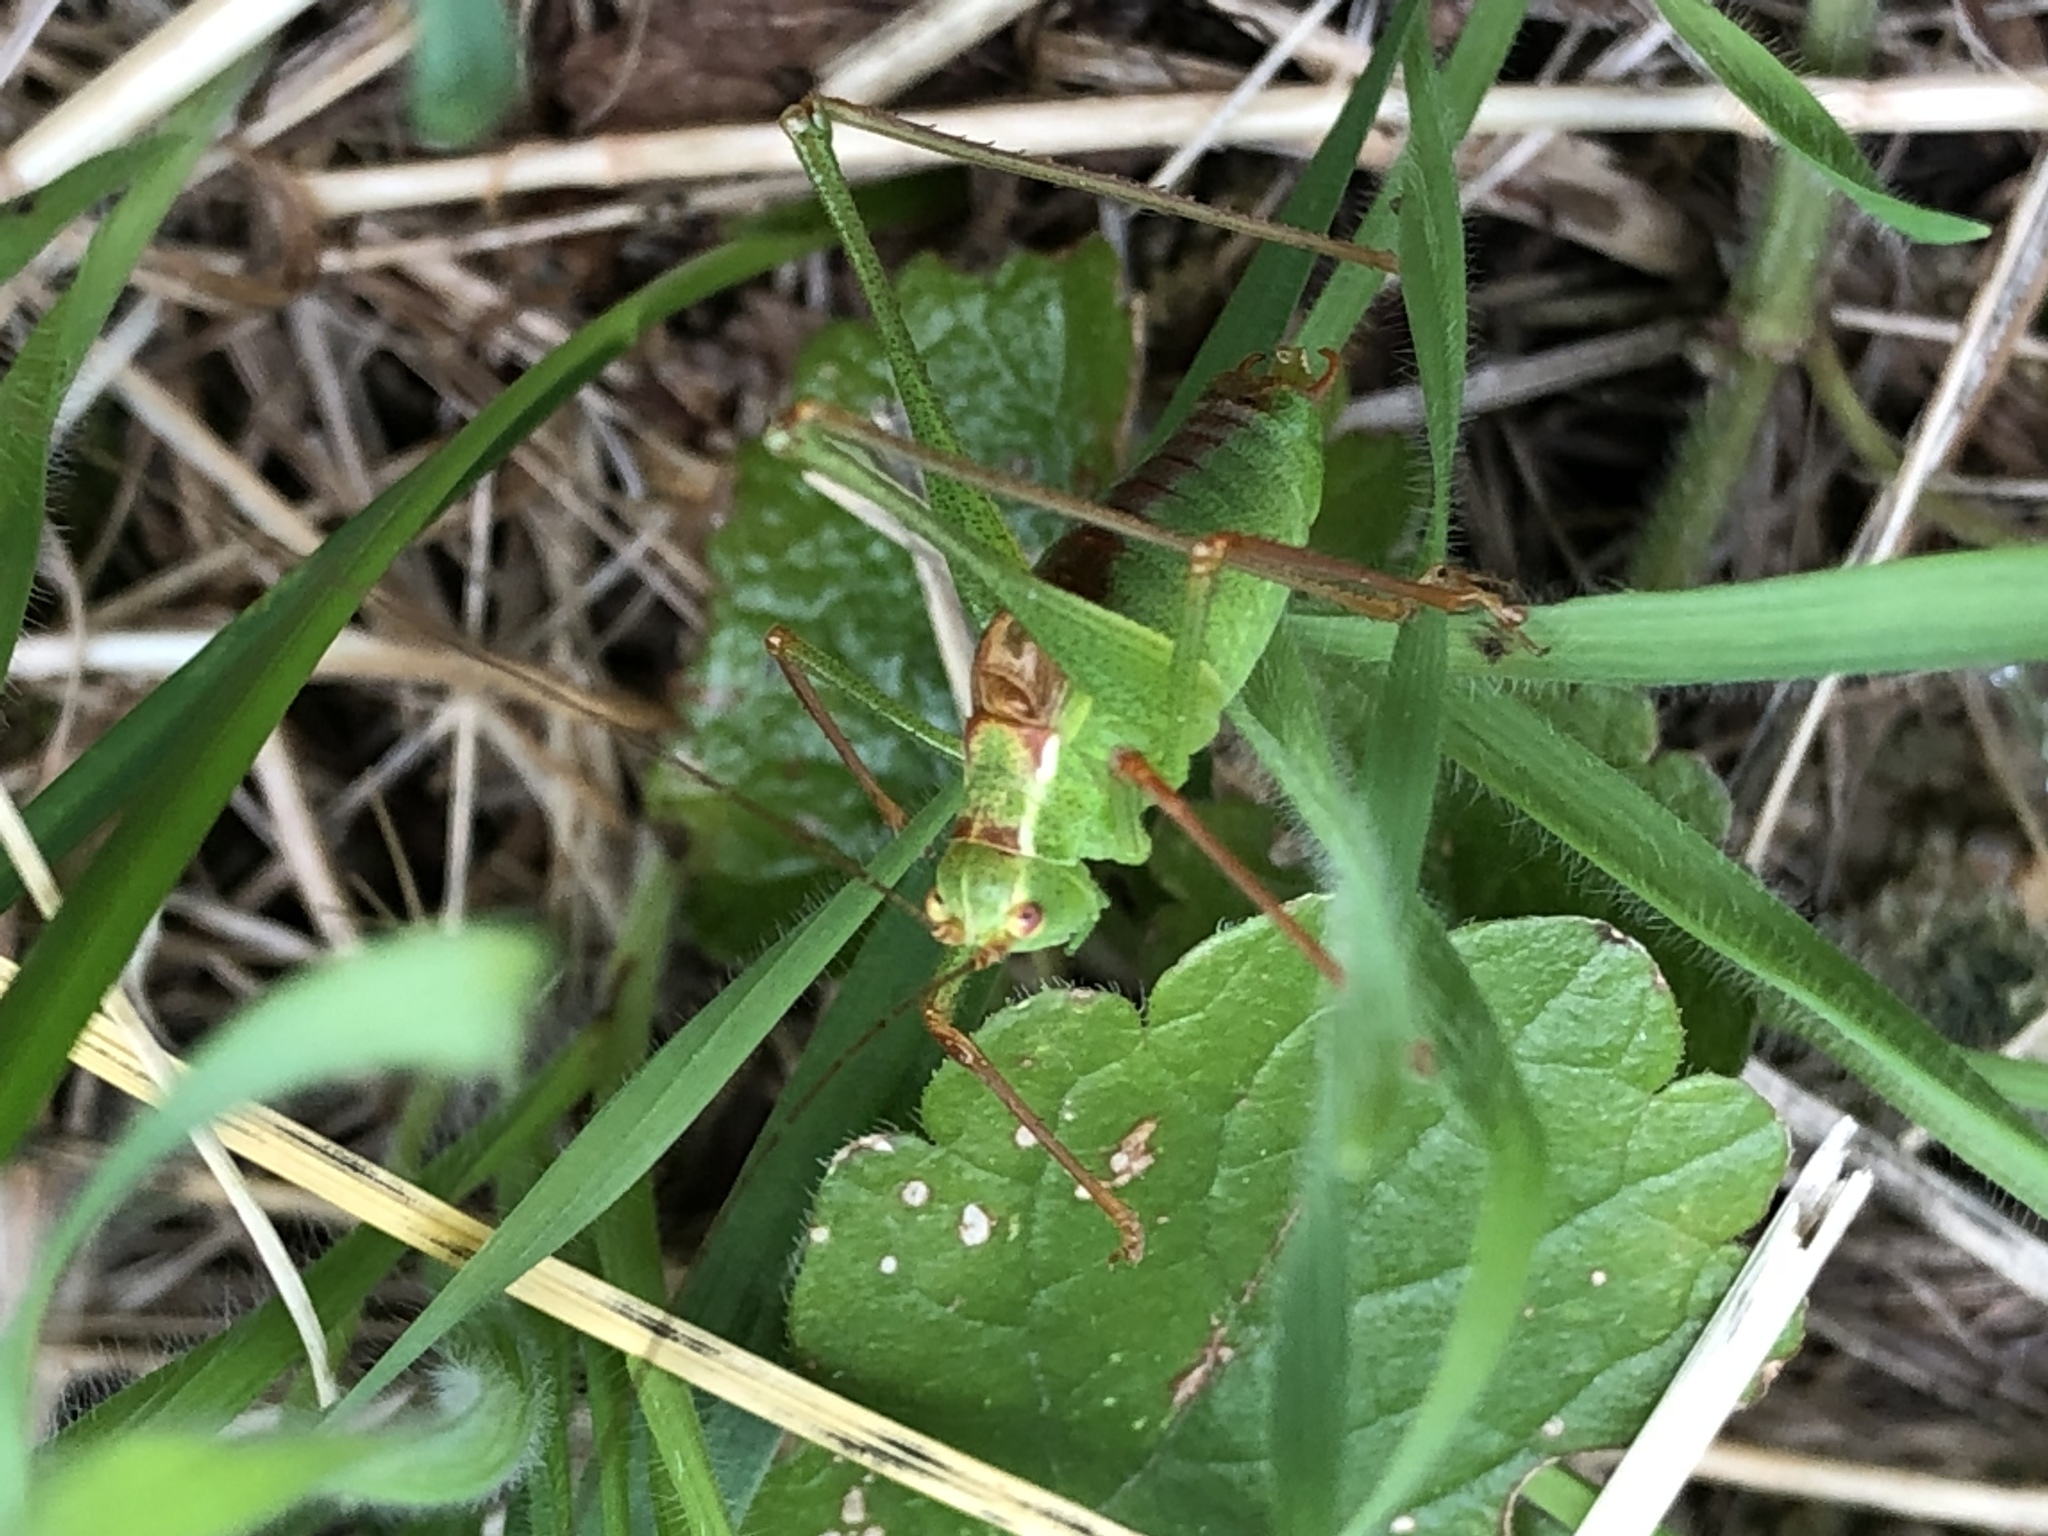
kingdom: Animalia
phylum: Arthropoda
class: Insecta
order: Orthoptera
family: Tettigoniidae
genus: Leptophyes
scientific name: Leptophyes punctatissima
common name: Speckled bush-cricket
